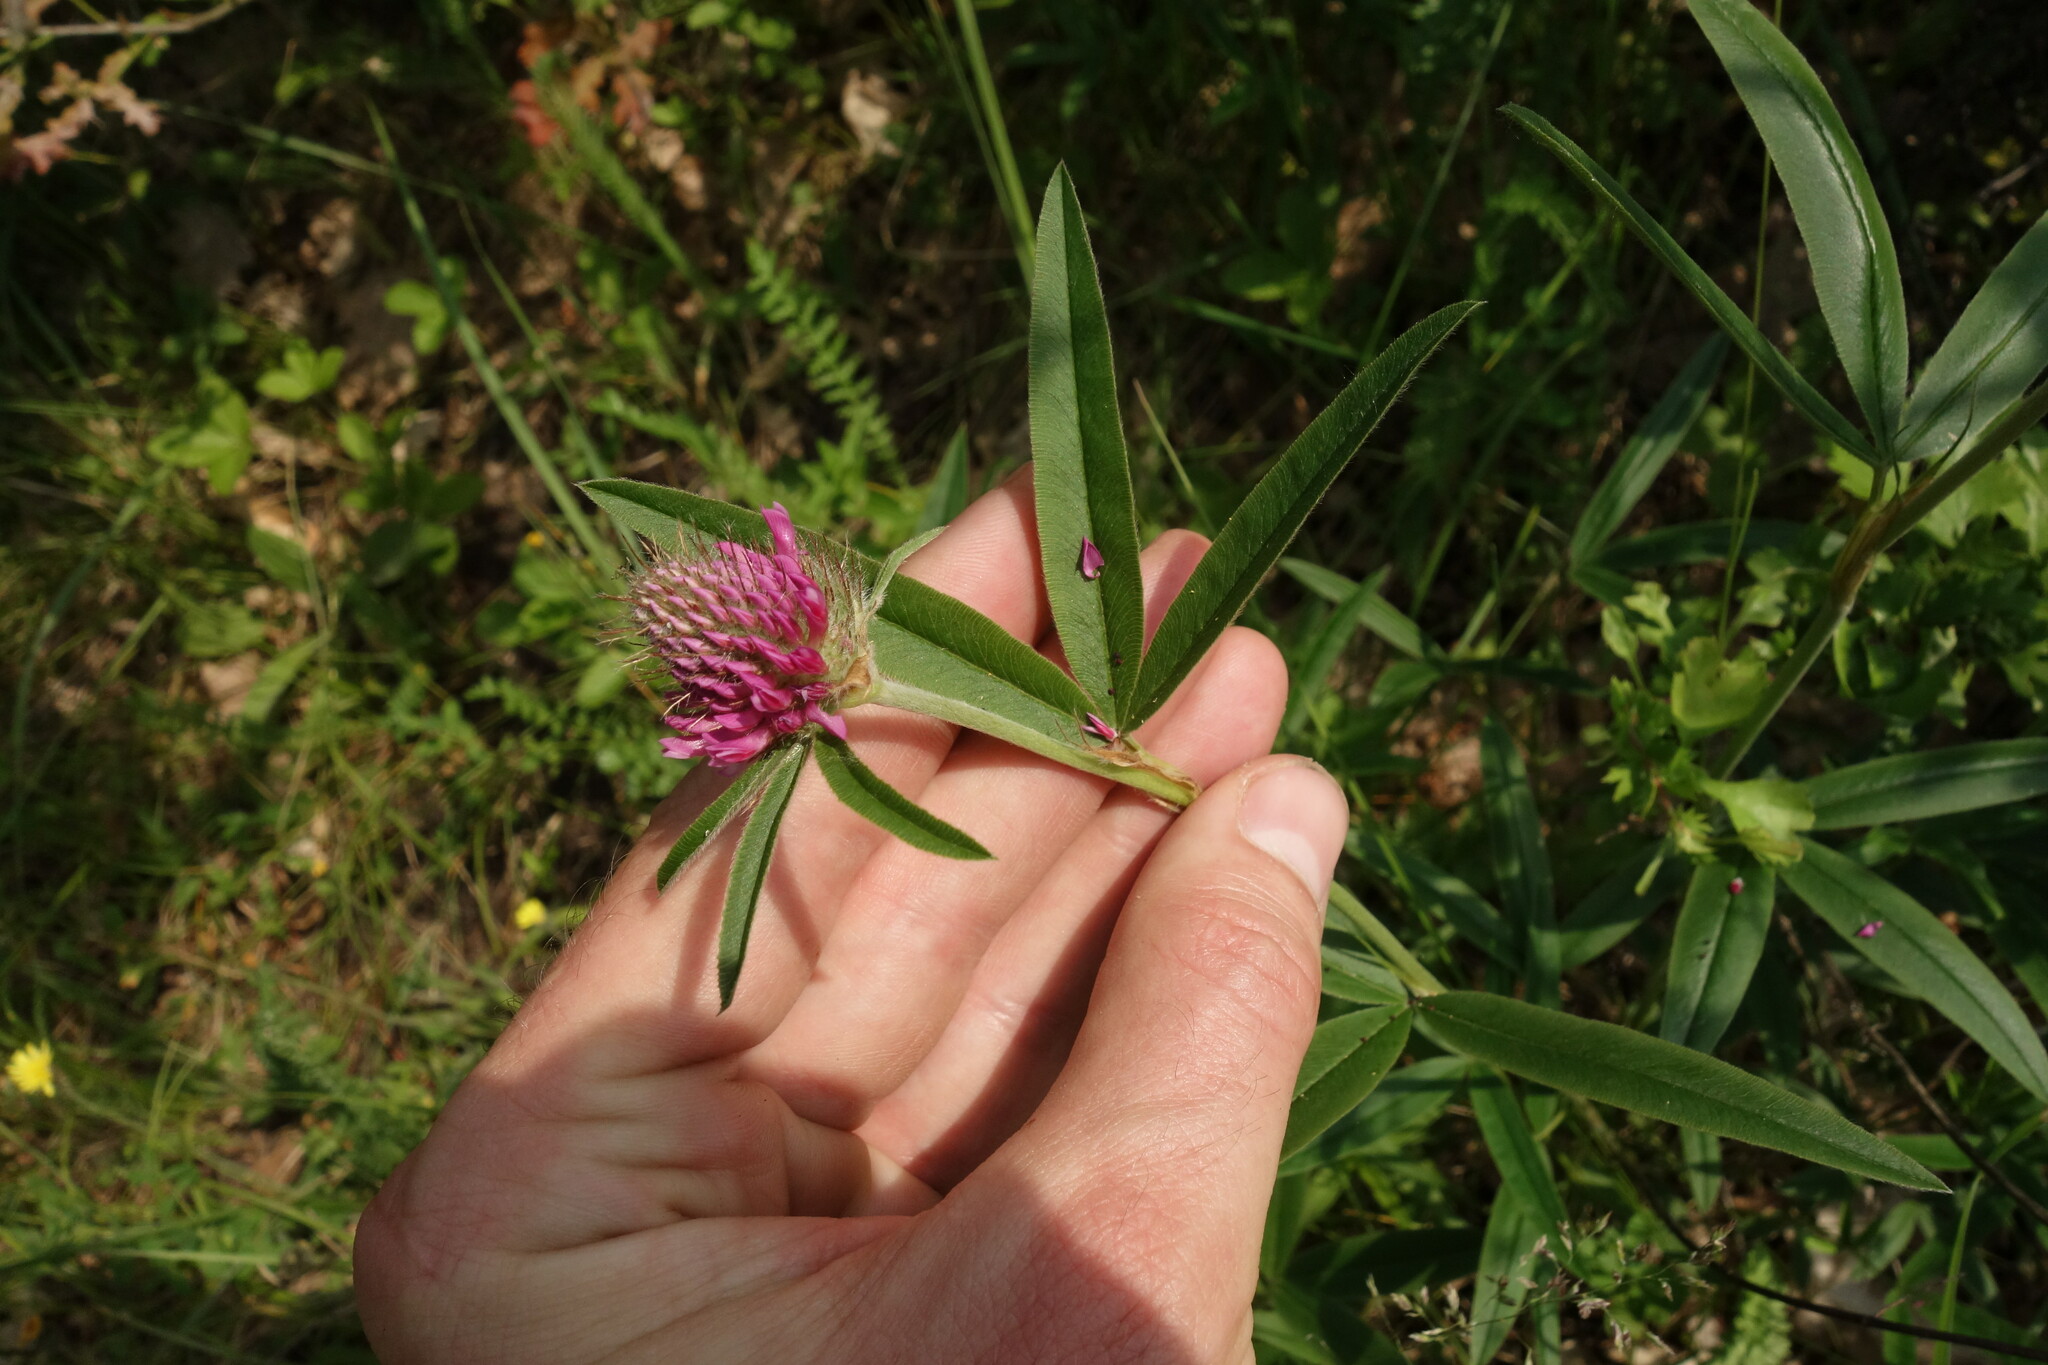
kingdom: Plantae
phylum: Tracheophyta
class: Magnoliopsida
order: Fabales
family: Fabaceae
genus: Trifolium
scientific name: Trifolium alpestre
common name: Owl-head clover
